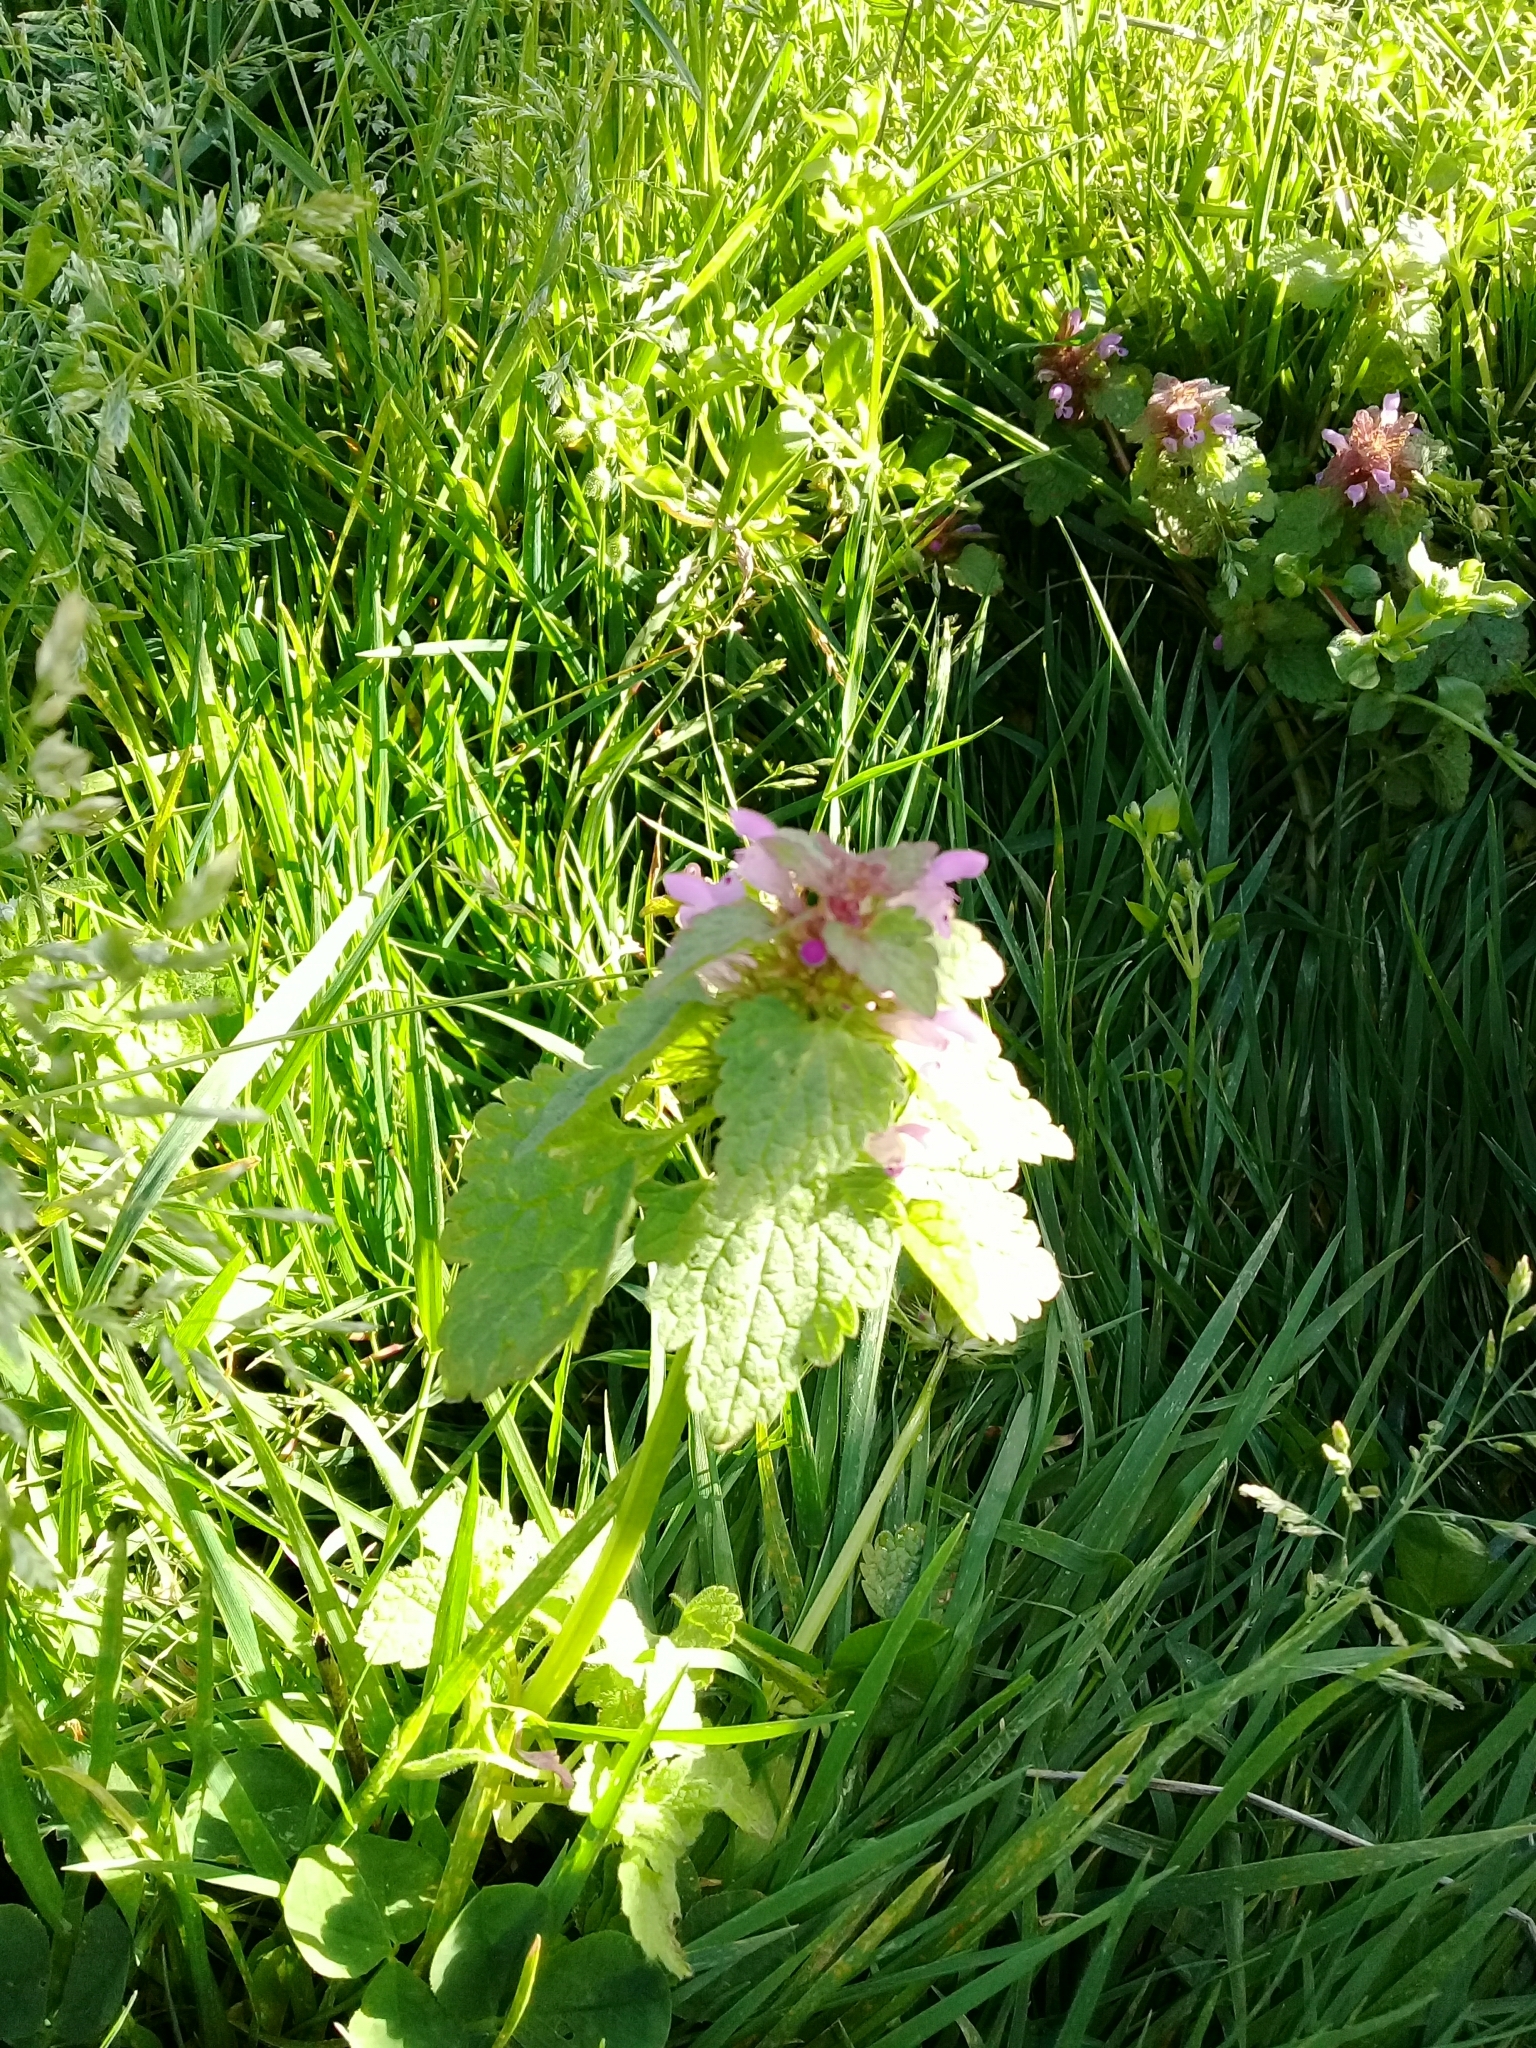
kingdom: Plantae
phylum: Tracheophyta
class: Magnoliopsida
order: Lamiales
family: Lamiaceae
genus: Lamium
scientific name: Lamium purpureum
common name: Red dead-nettle
